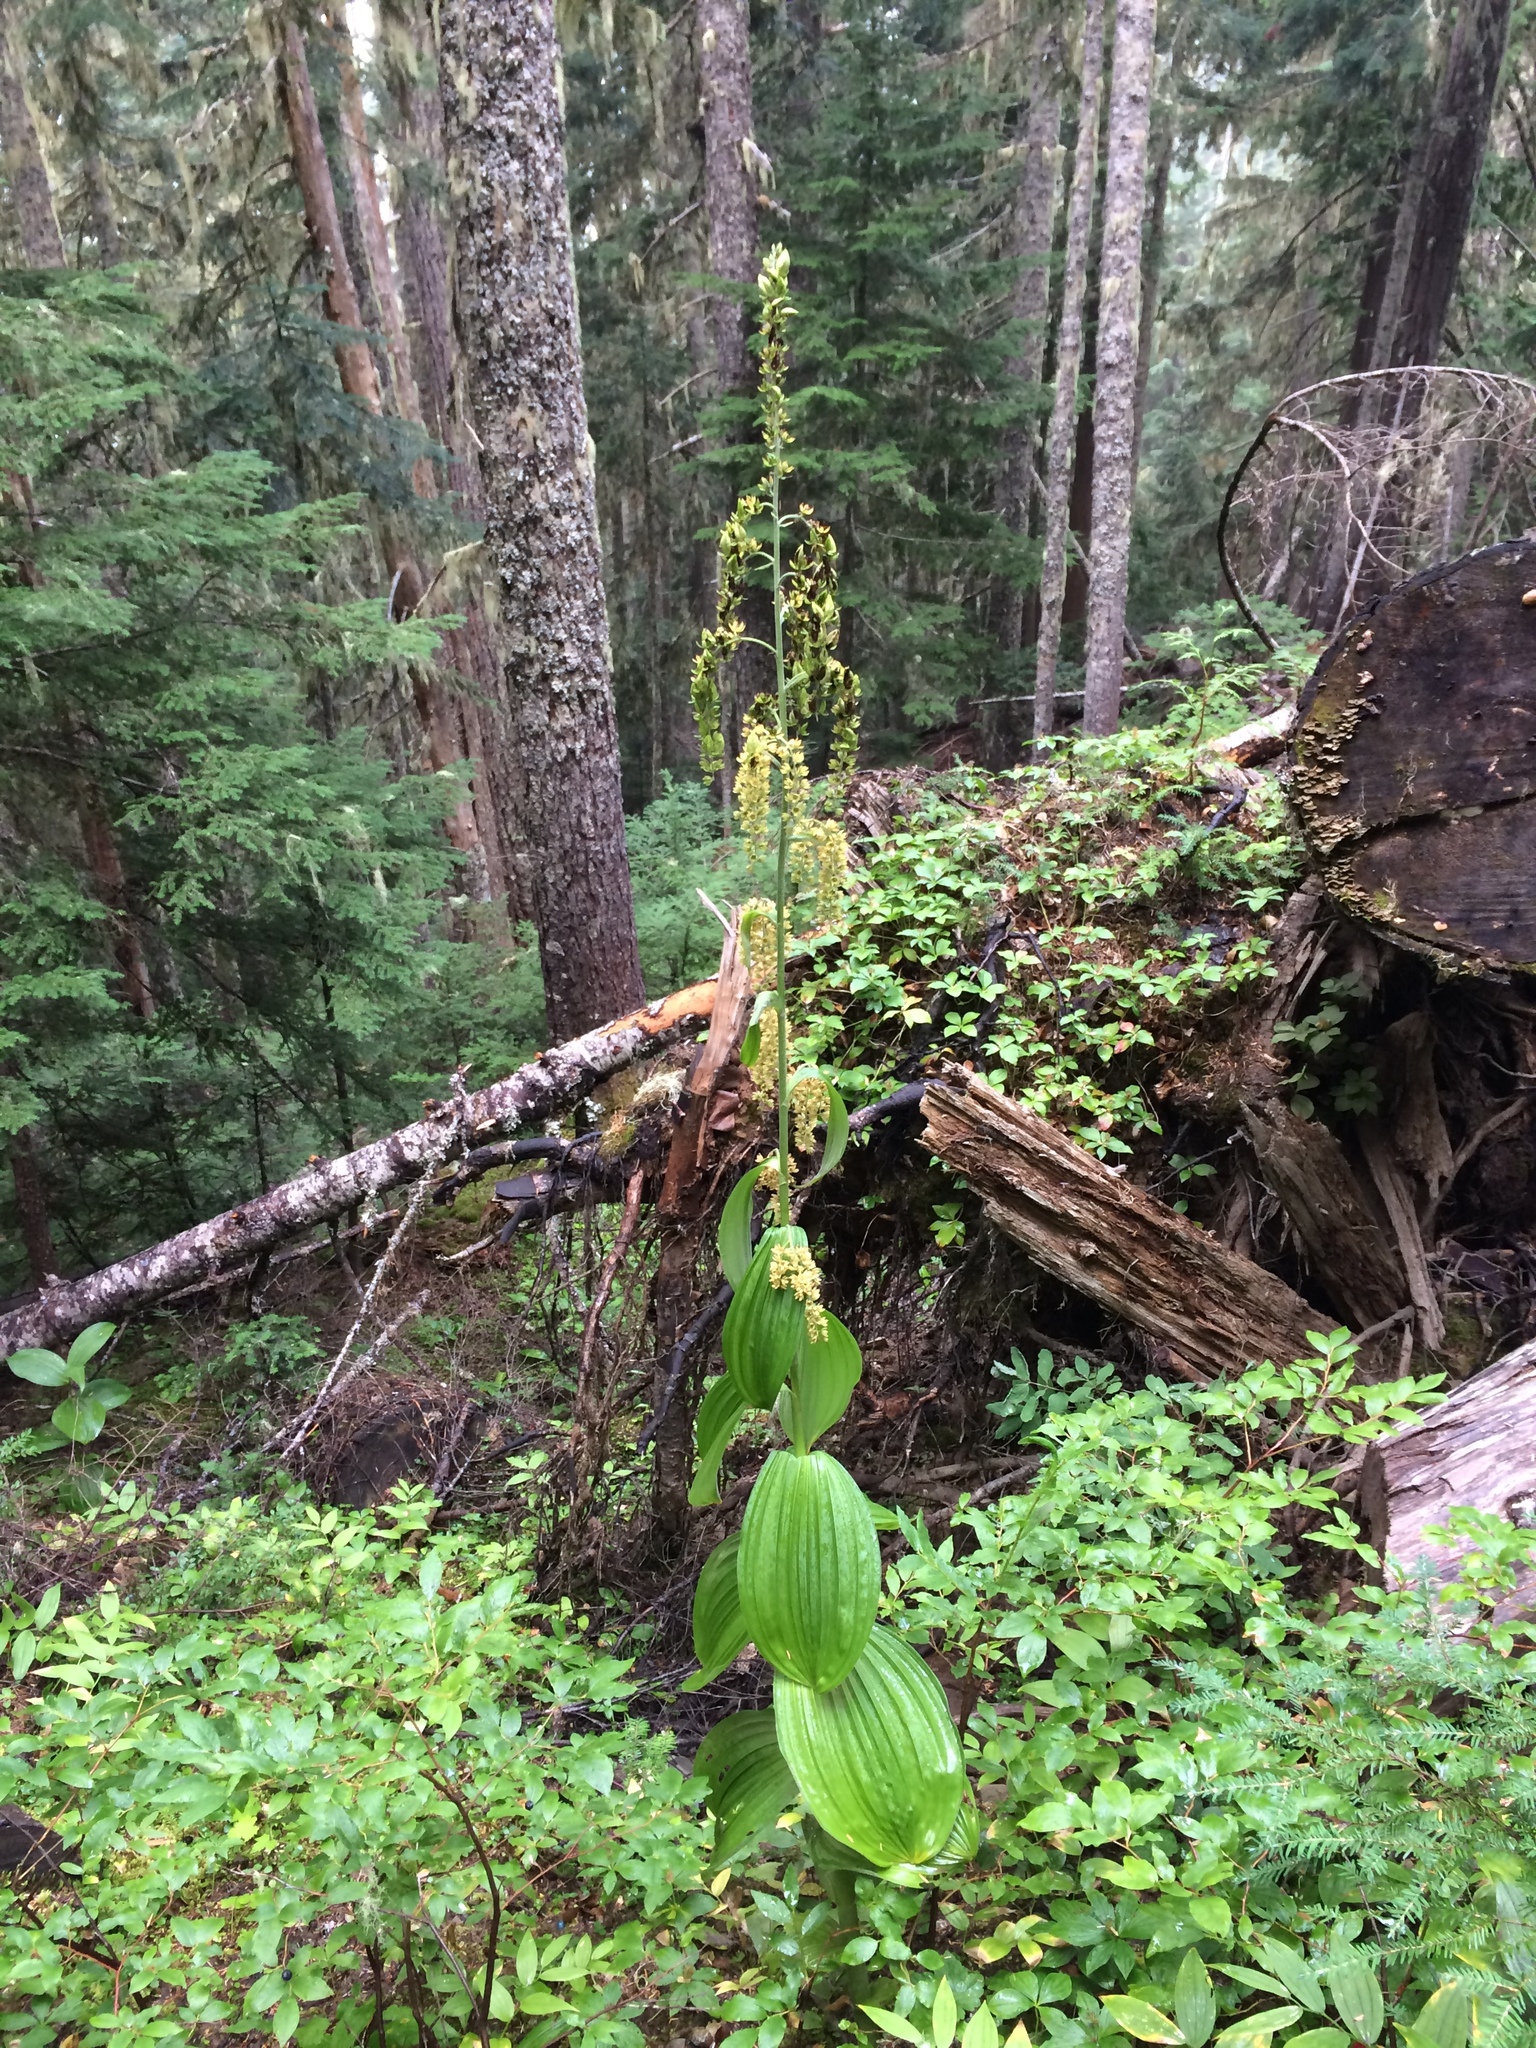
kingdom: Plantae
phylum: Tracheophyta
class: Liliopsida
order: Liliales
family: Melanthiaceae
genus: Veratrum
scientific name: Veratrum viride
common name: American false hellebore
